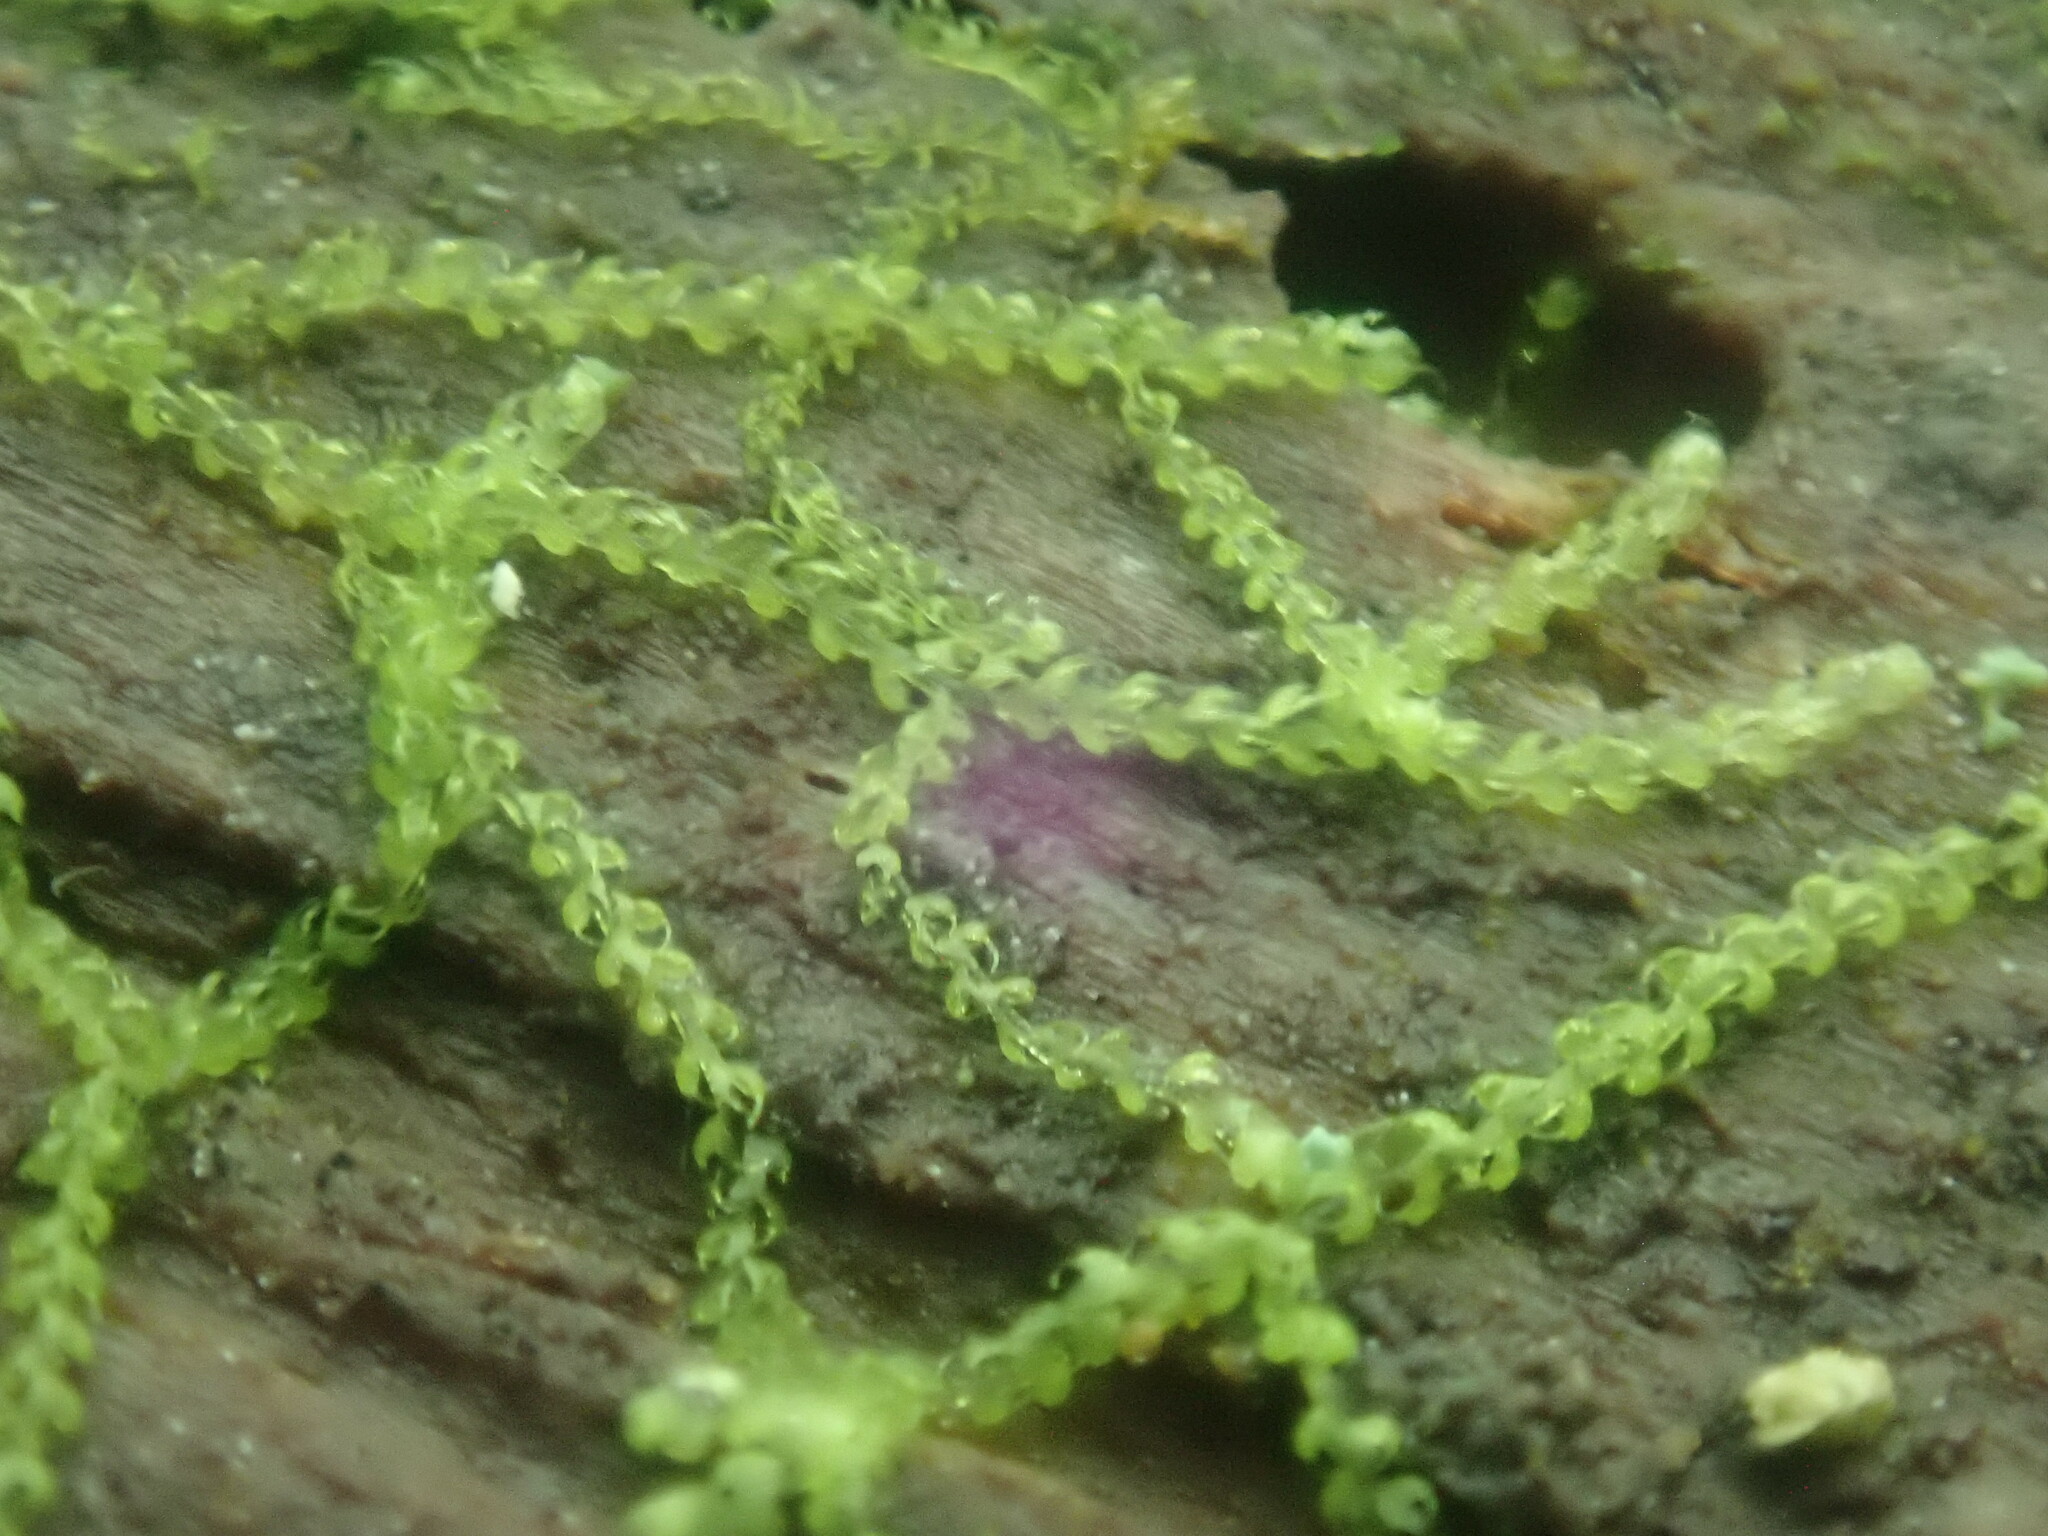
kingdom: Plantae
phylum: Marchantiophyta
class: Jungermanniopsida
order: Jungermanniales
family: Cephaloziaceae
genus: Nowellia
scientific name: Nowellia curvifolia
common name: Wood rustwort
